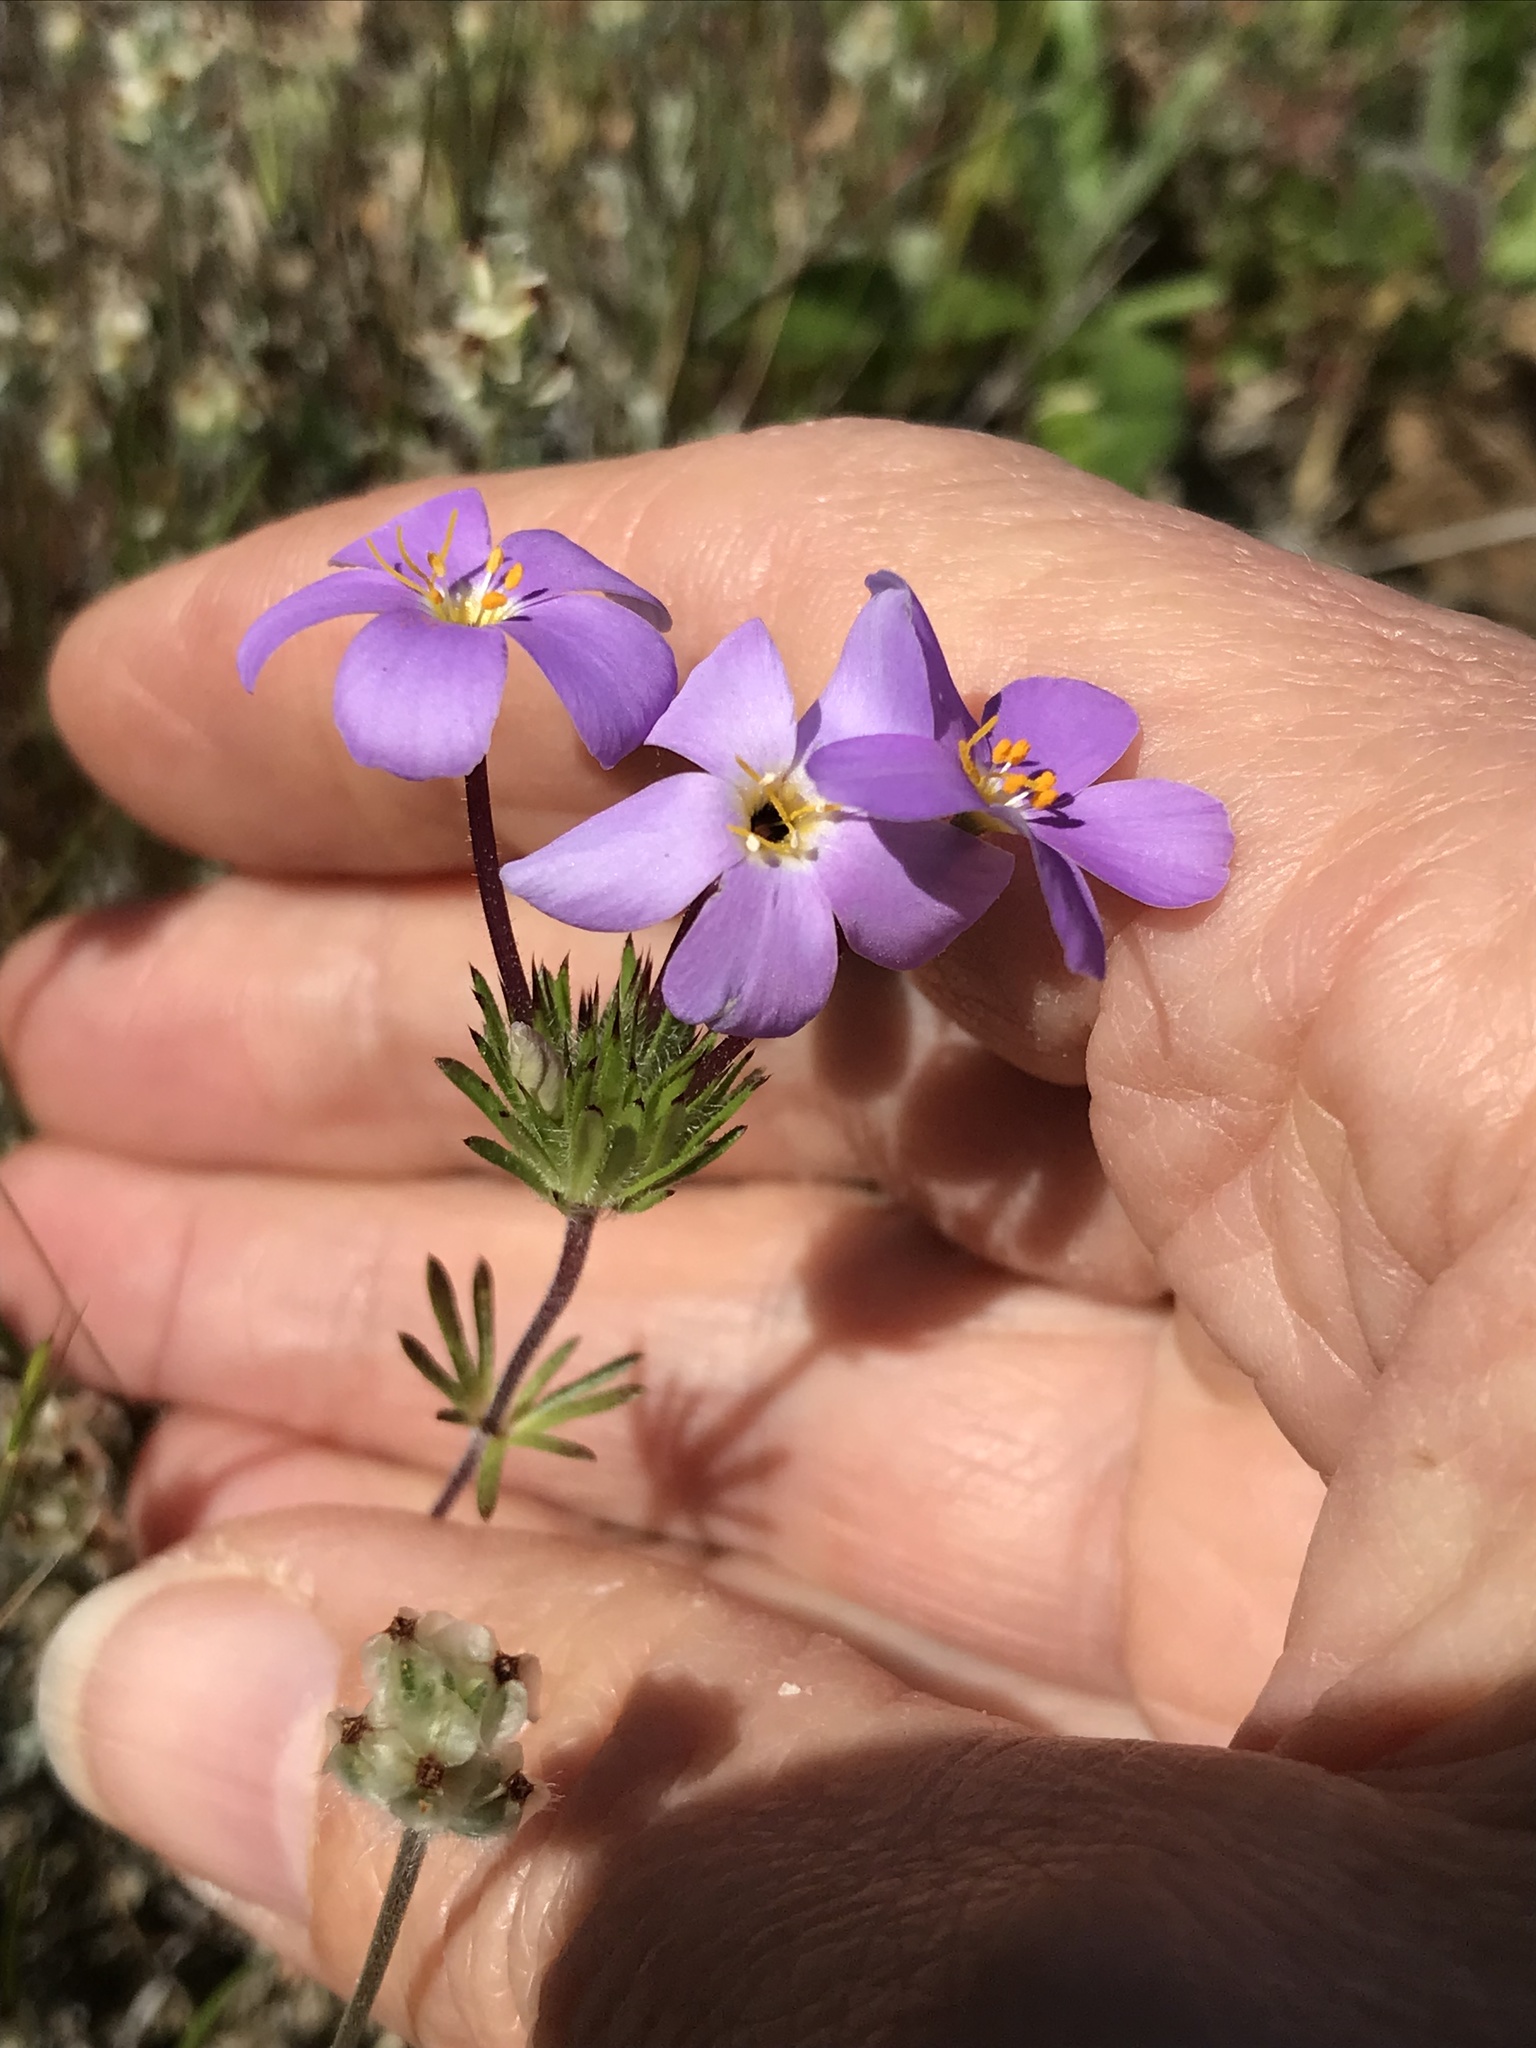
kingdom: Plantae
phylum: Tracheophyta
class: Magnoliopsida
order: Ericales
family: Polemoniaceae
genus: Leptosiphon
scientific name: Leptosiphon androsaceus
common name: False babystars
